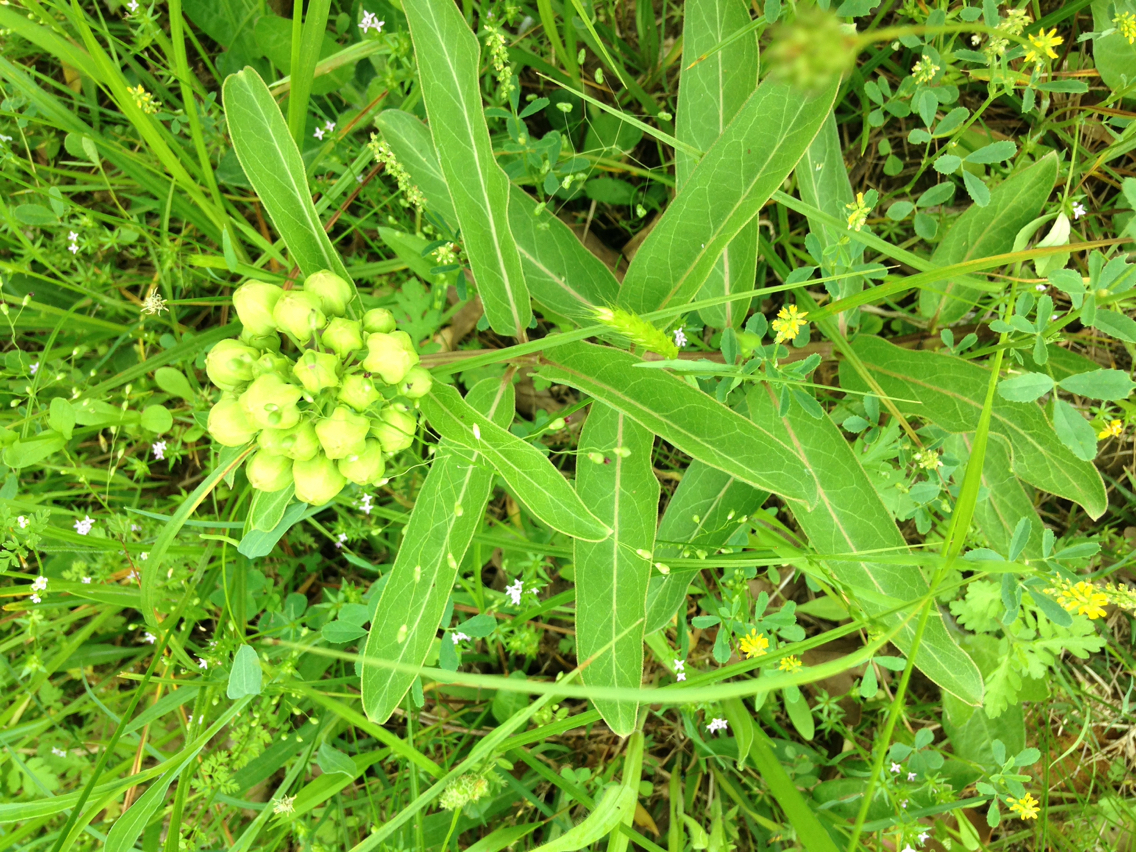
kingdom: Plantae
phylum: Tracheophyta
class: Magnoliopsida
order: Gentianales
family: Apocynaceae
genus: Asclepias
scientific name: Asclepias viridis
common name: Antelope-horns
